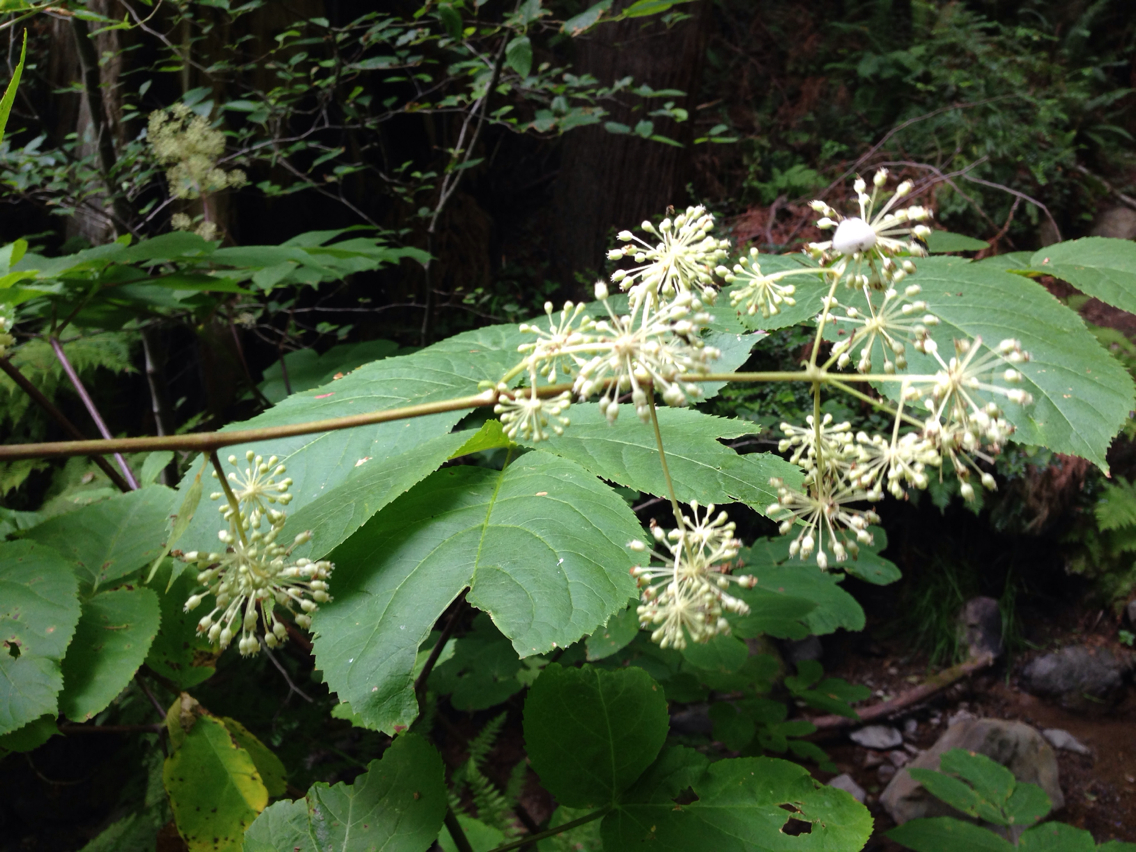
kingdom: Plantae
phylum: Tracheophyta
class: Magnoliopsida
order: Apiales
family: Araliaceae
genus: Aralia
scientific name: Aralia californica
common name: California-ginseng
